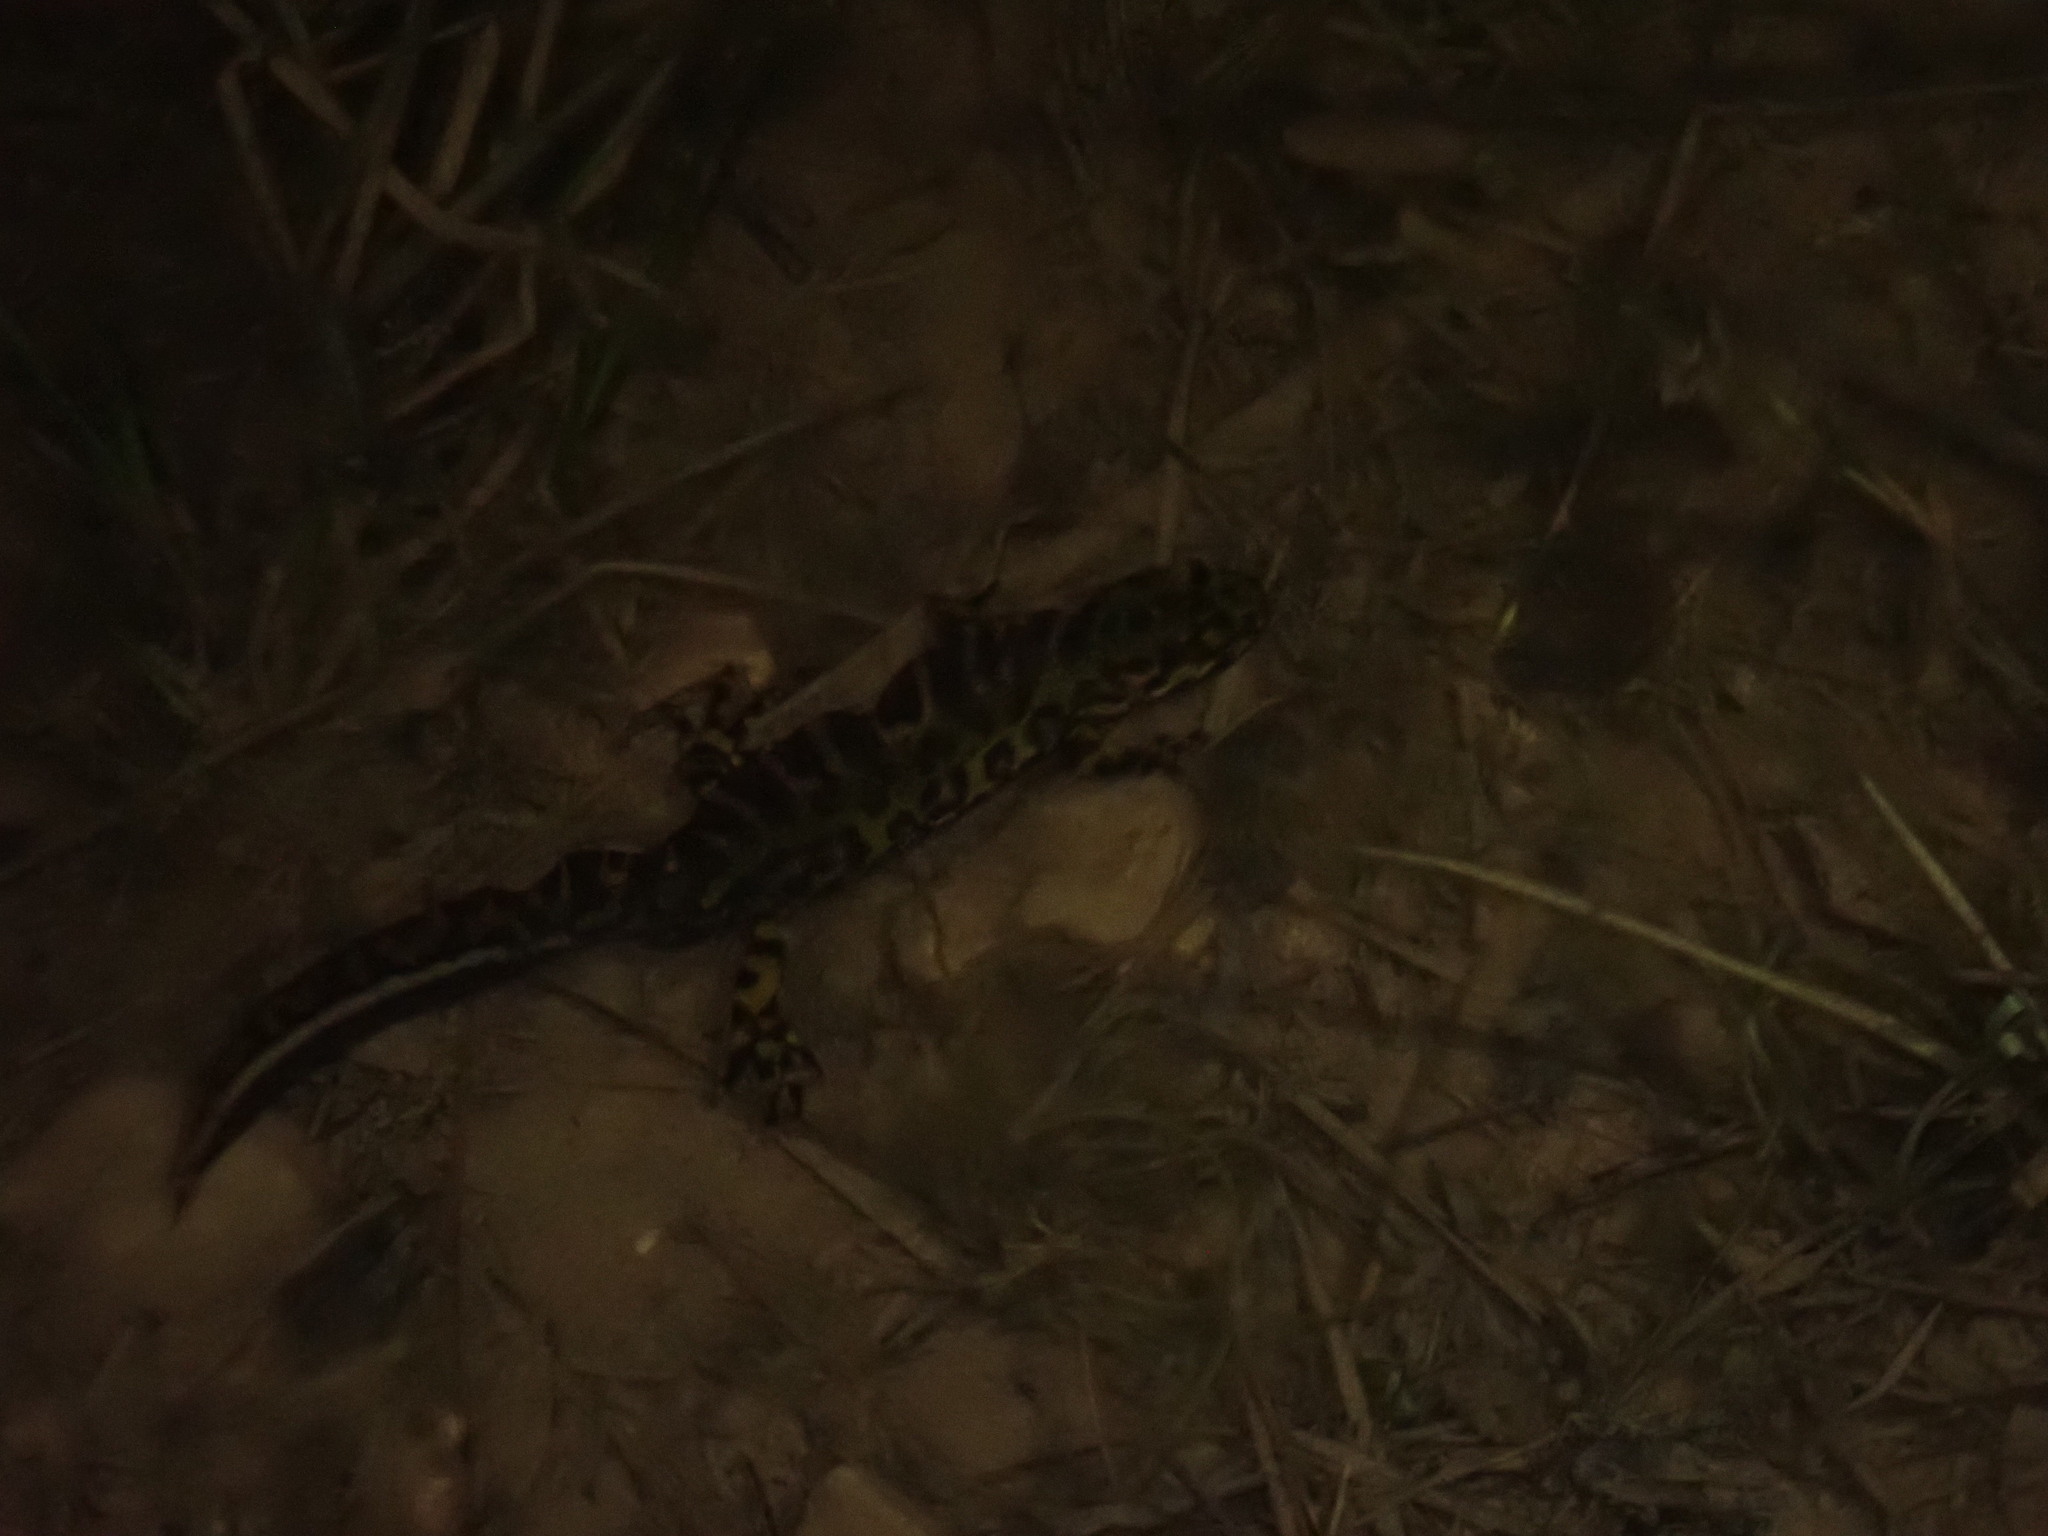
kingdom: Animalia
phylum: Chordata
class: Amphibia
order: Caudata
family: Salamandridae
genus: Triturus
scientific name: Triturus marmoratus
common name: Marbled newt
